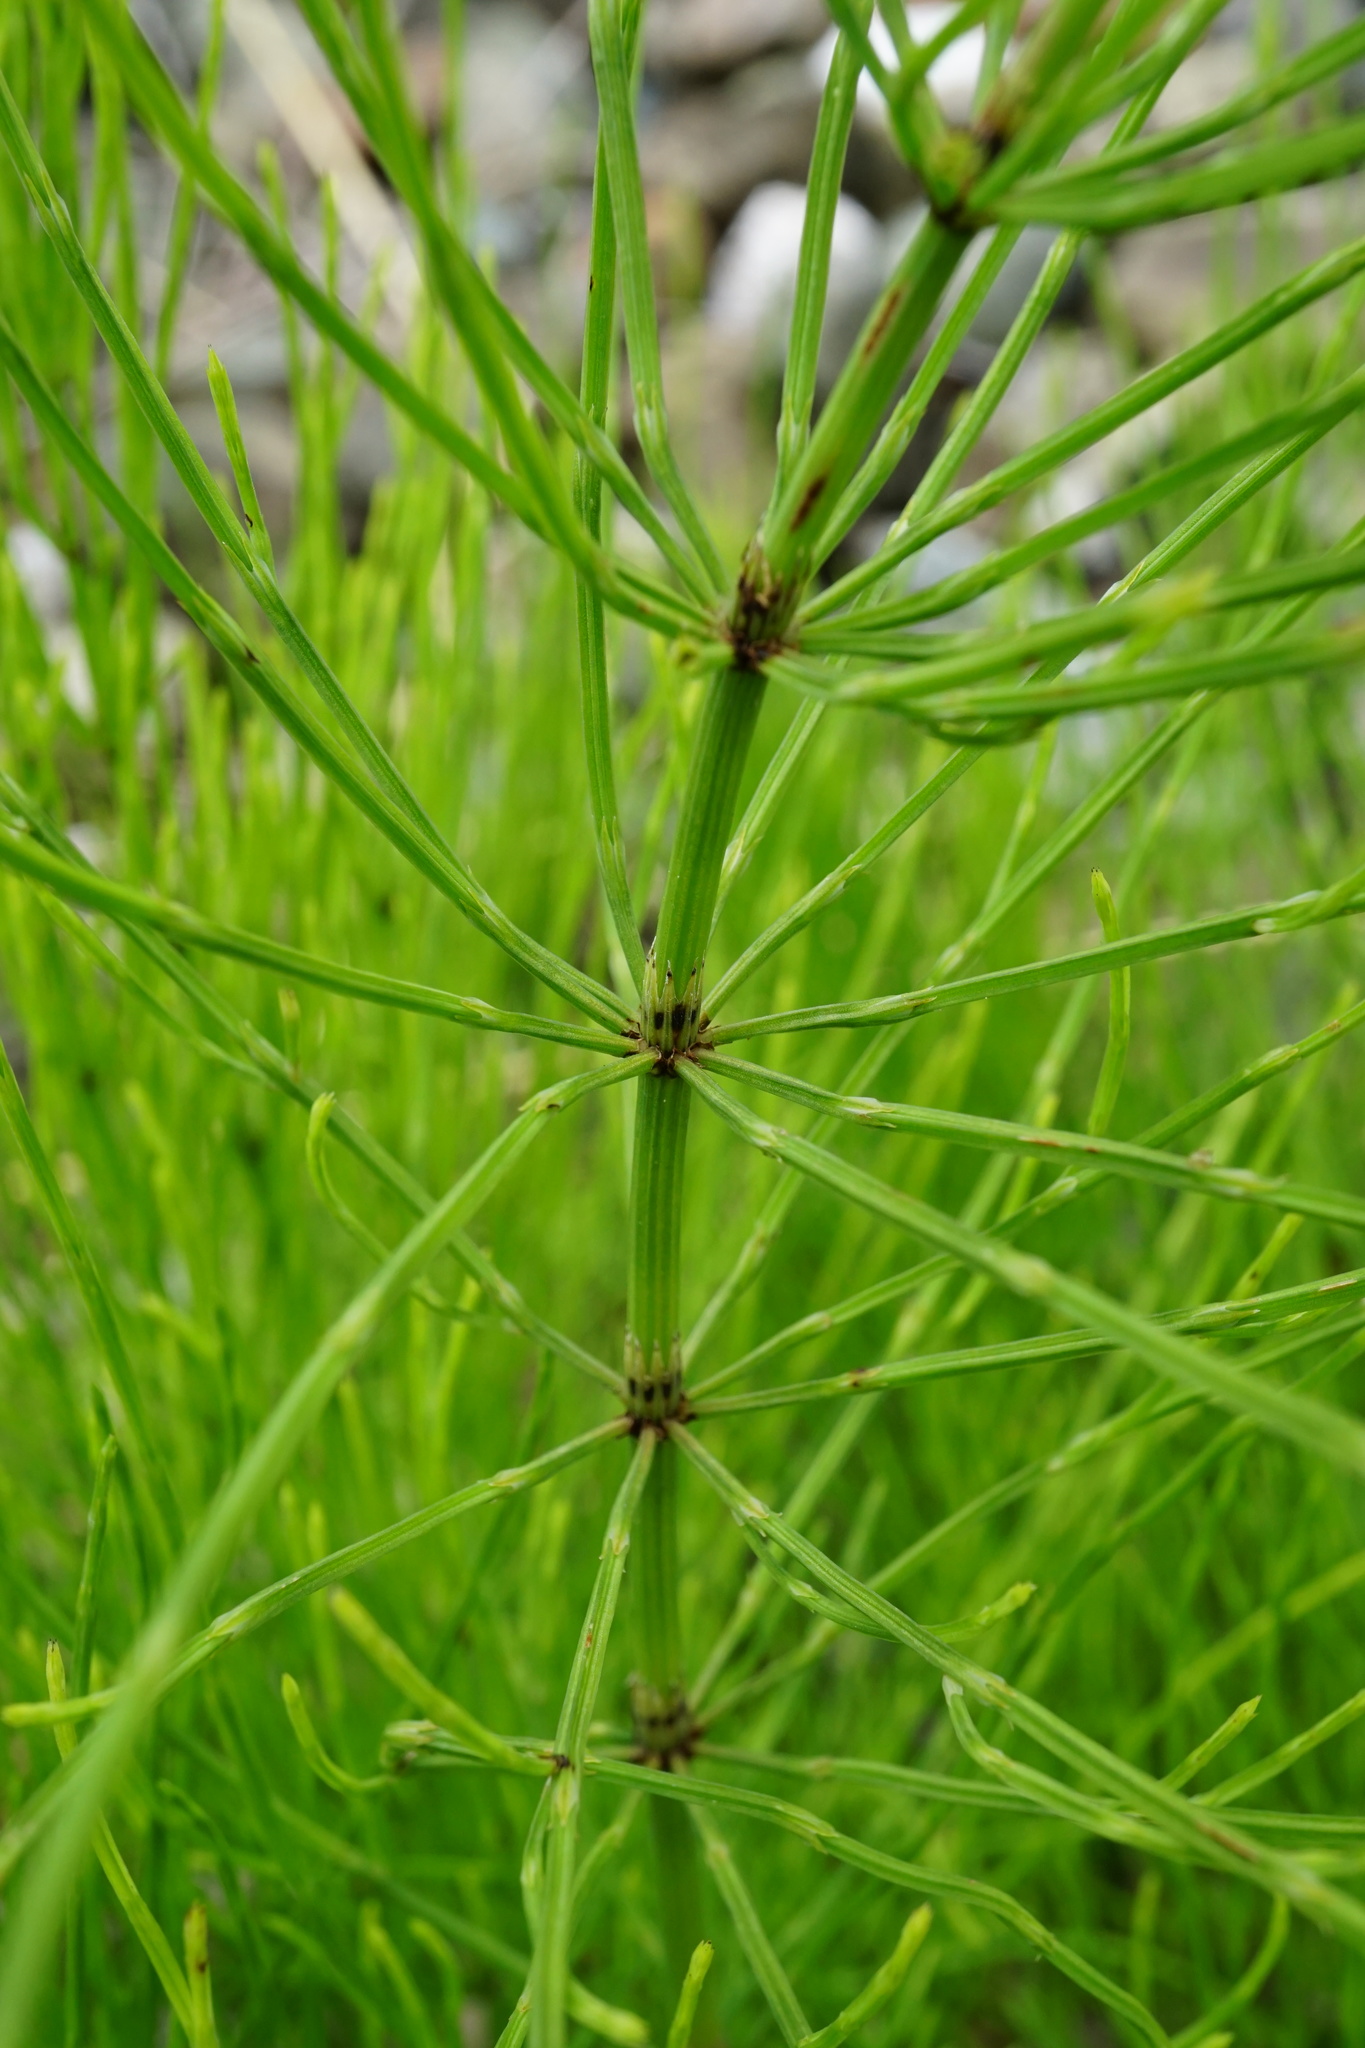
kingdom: Plantae
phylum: Tracheophyta
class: Polypodiopsida
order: Equisetales
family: Equisetaceae
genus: Equisetum
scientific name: Equisetum arvense
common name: Field horsetail
